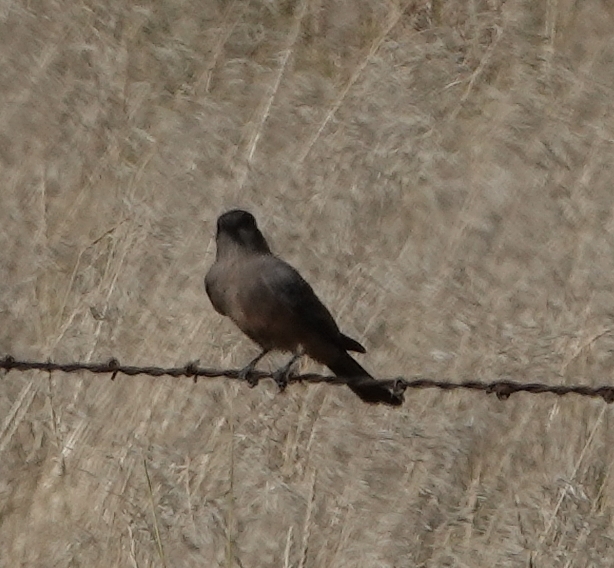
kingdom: Animalia
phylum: Chordata
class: Aves
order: Passeriformes
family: Tyrannidae
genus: Sayornis
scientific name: Sayornis saya
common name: Say's phoebe
